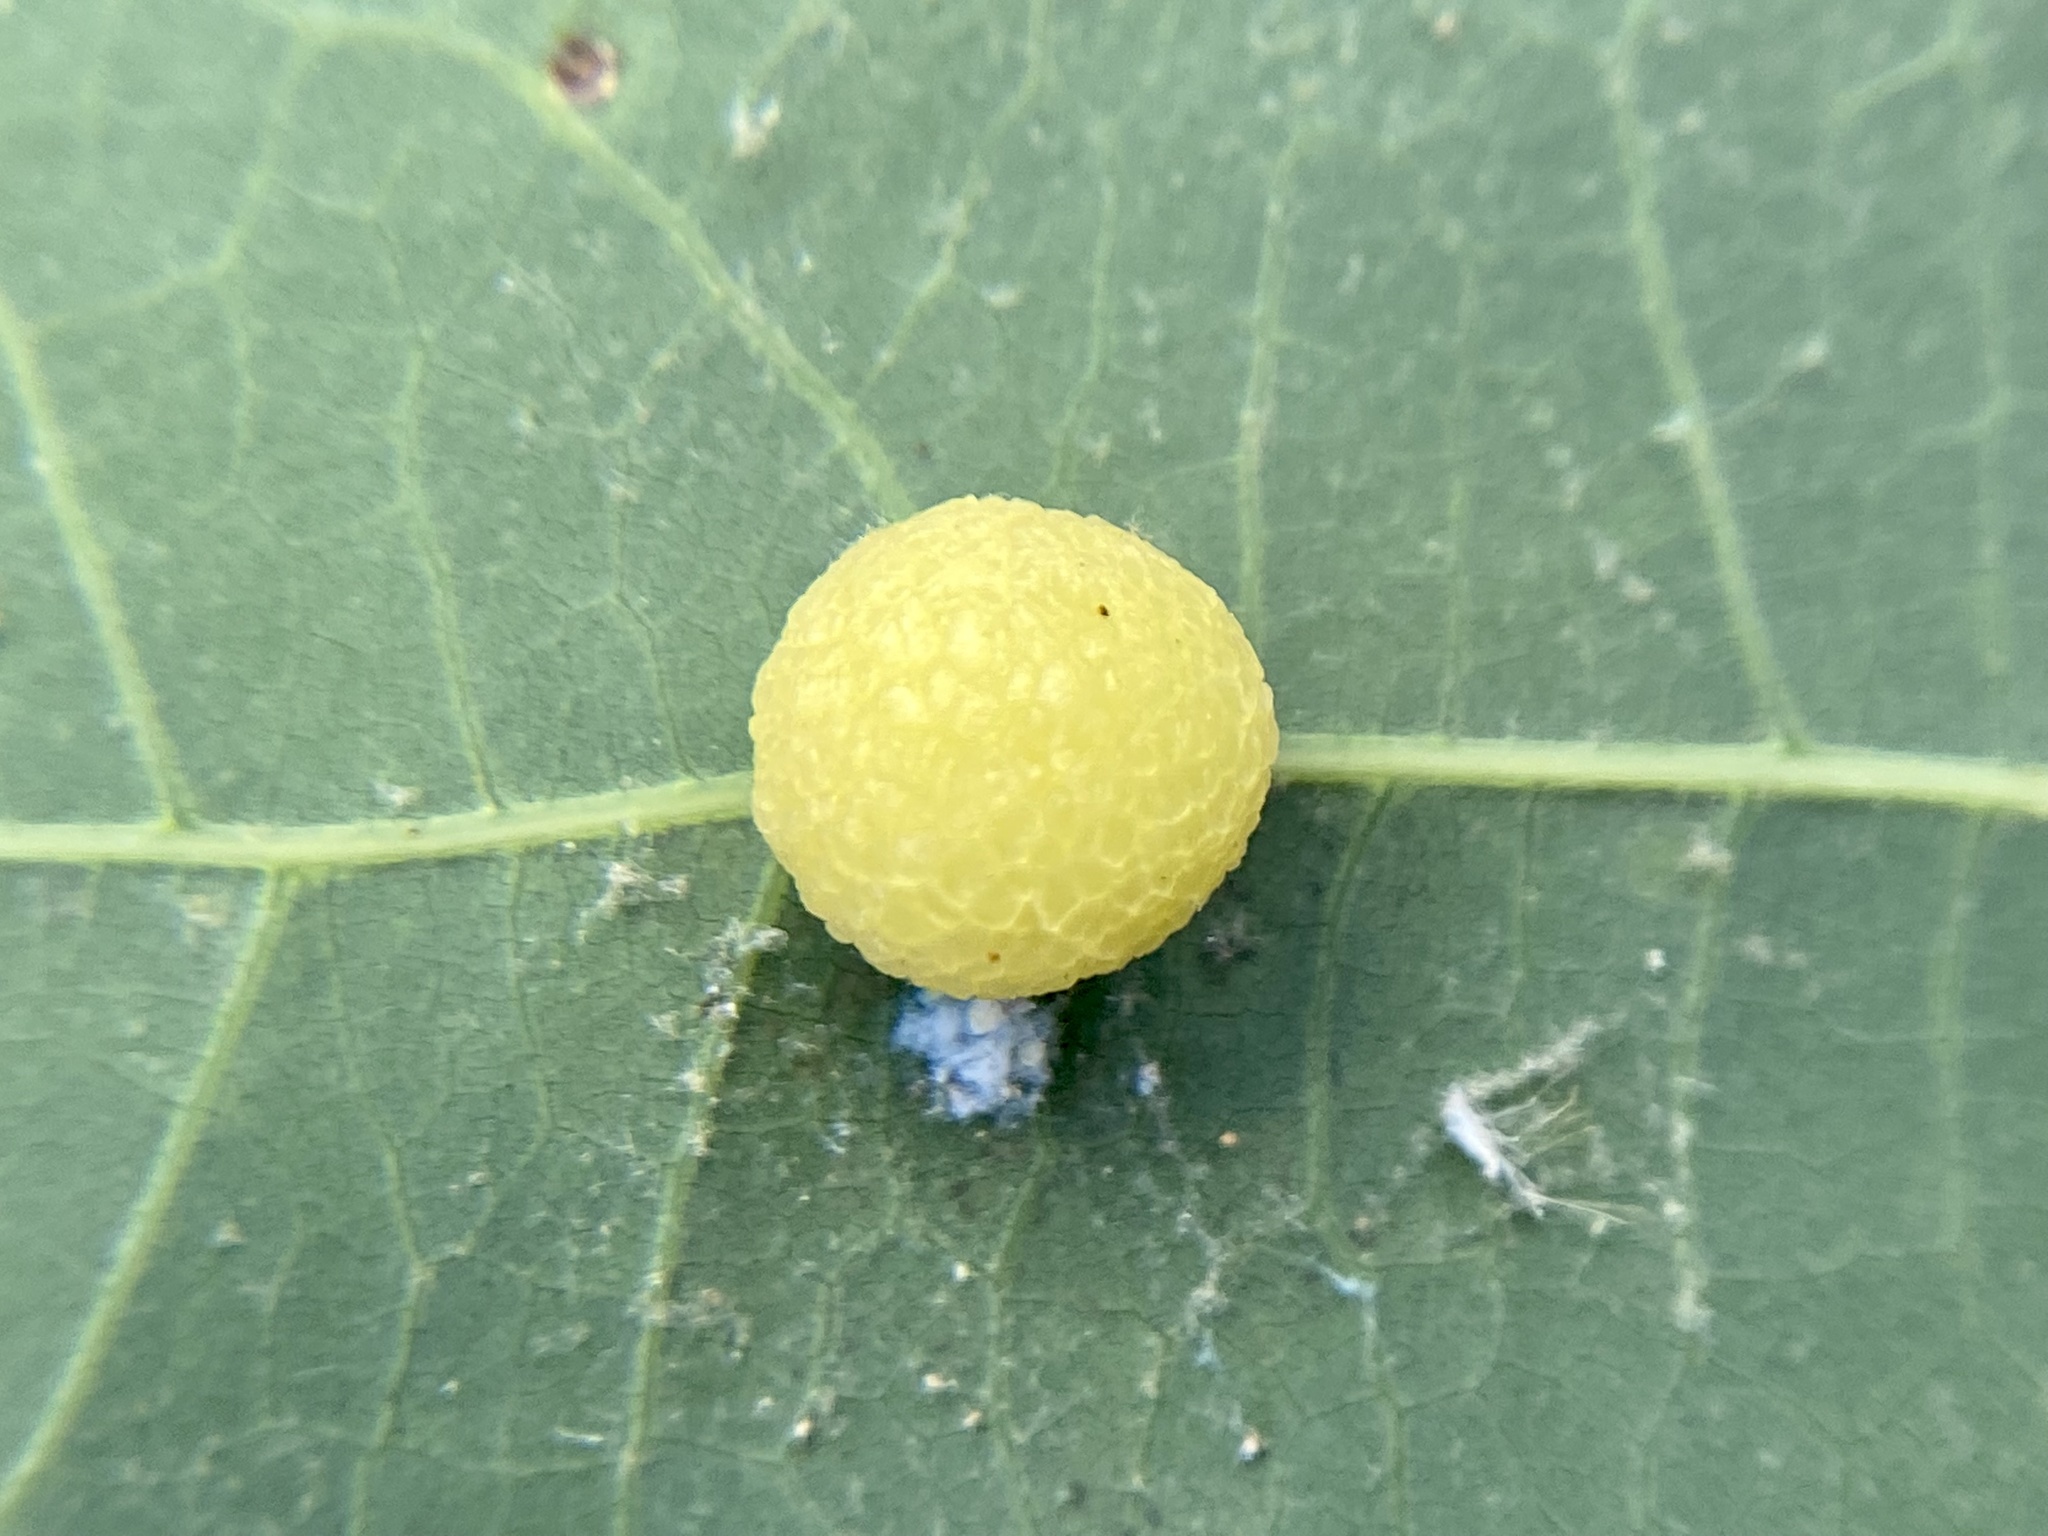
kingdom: Animalia
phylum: Arthropoda
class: Insecta
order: Hymenoptera
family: Cynipidae
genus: Acraspis
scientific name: Acraspis
